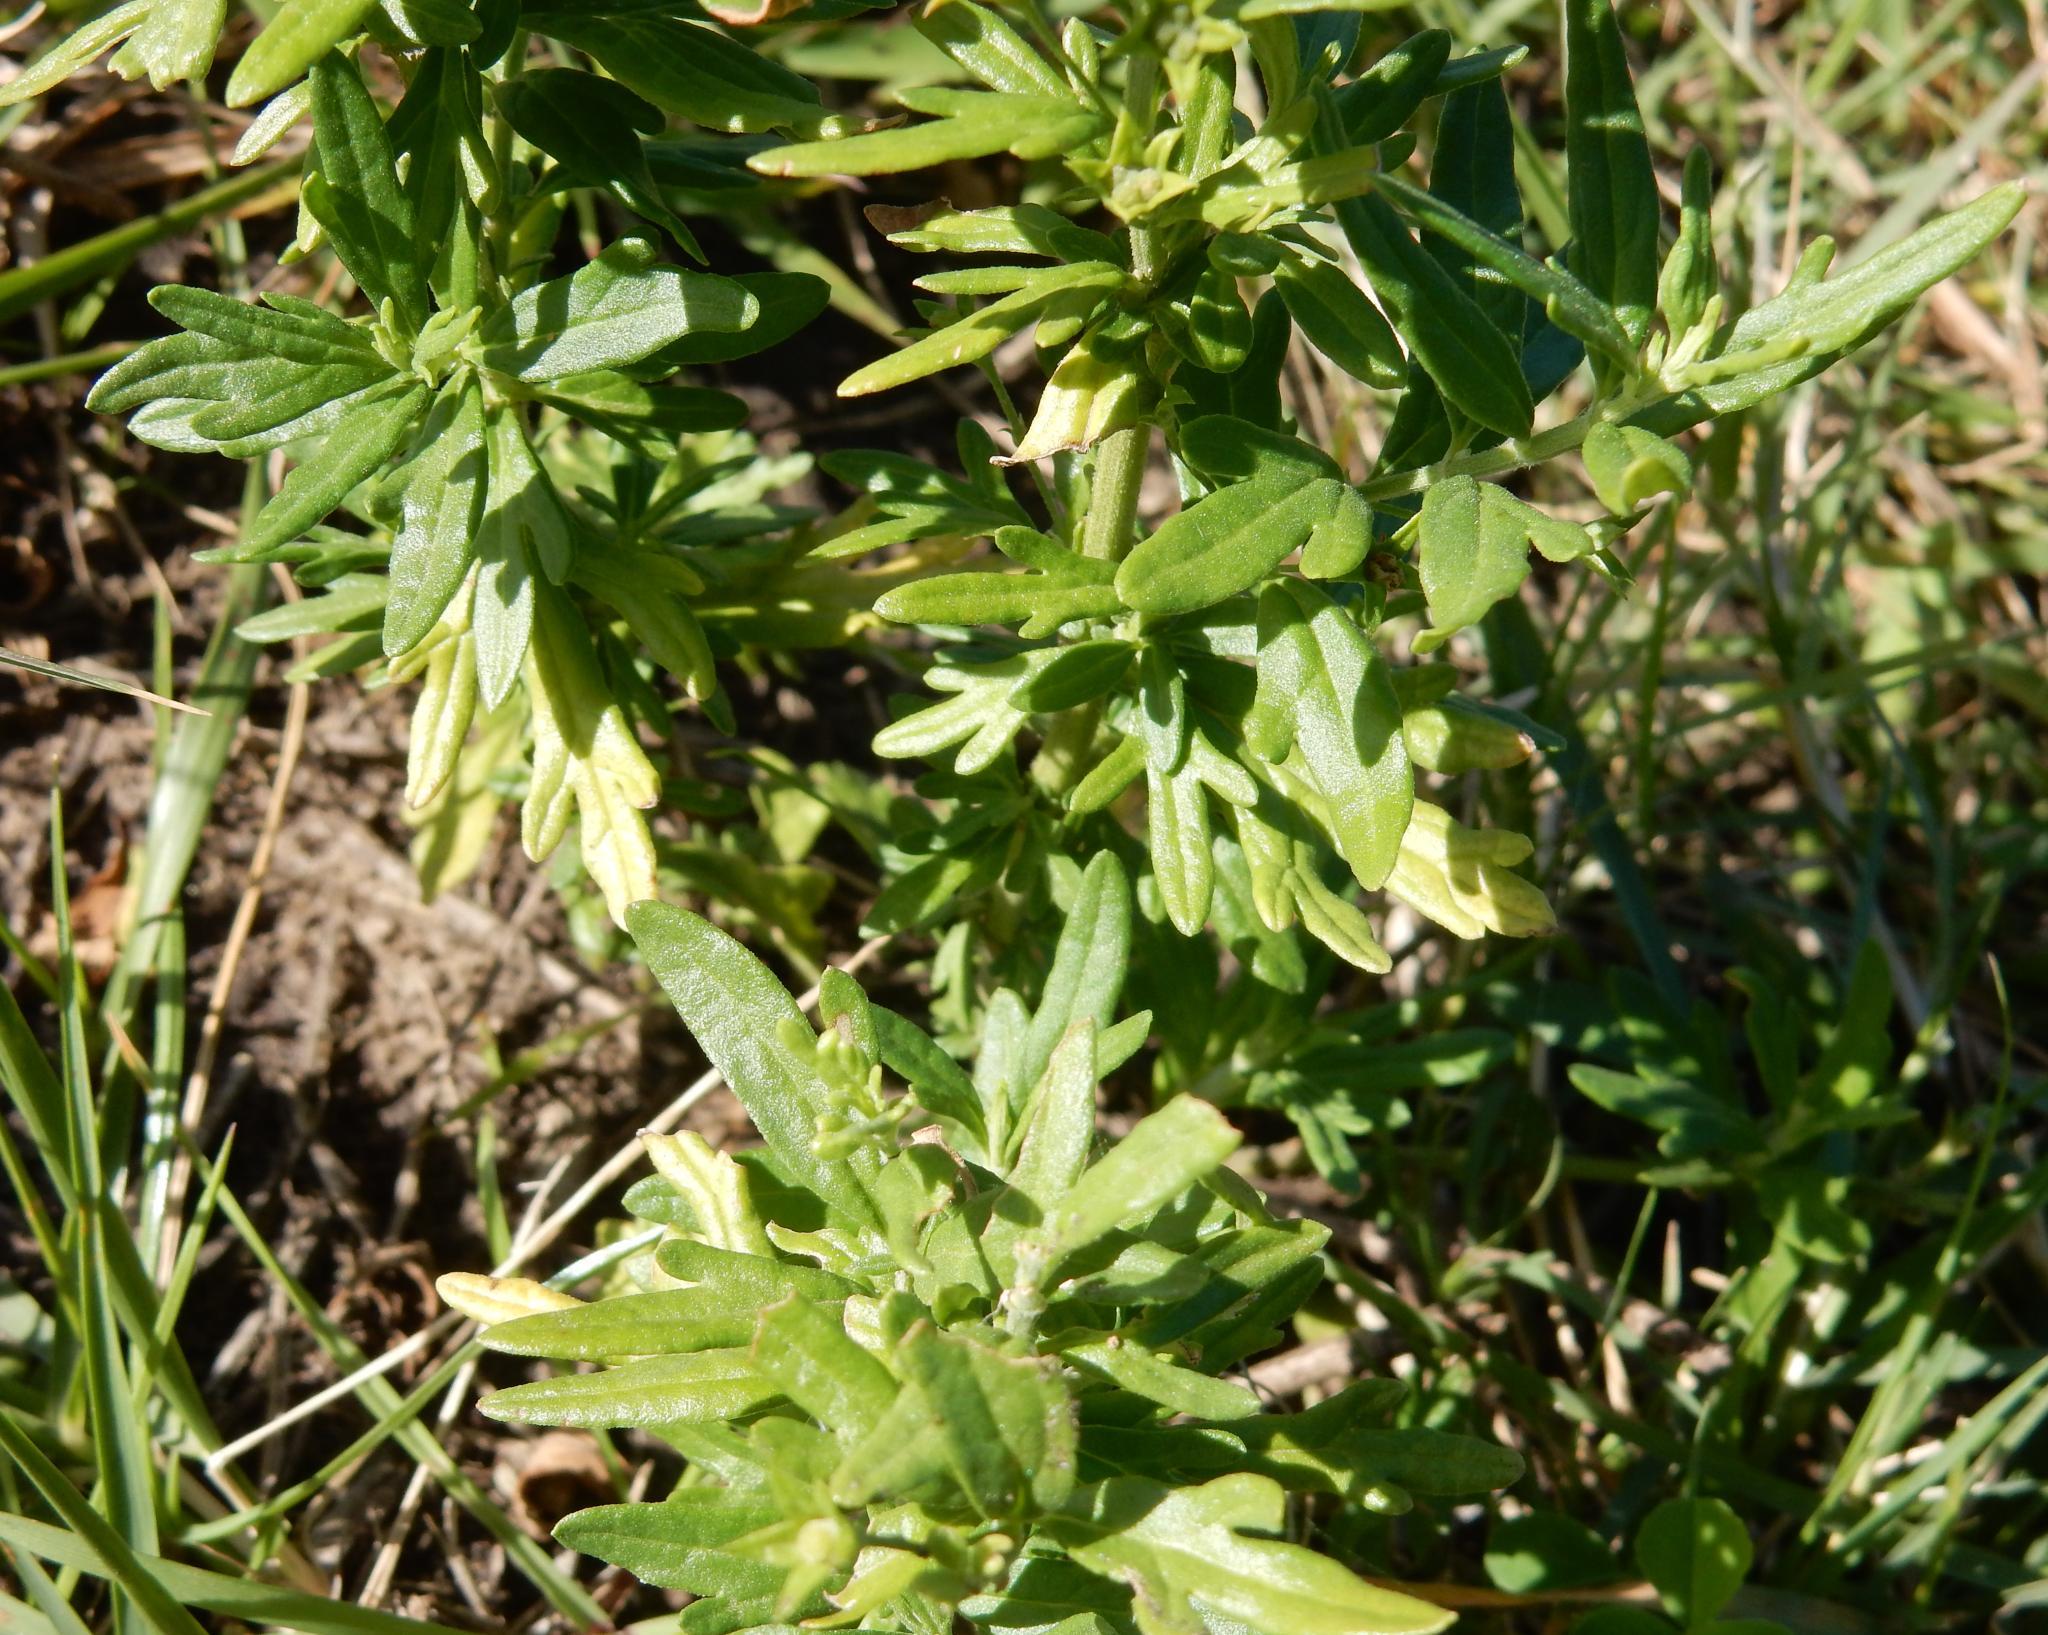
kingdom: Plantae
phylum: Tracheophyta
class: Magnoliopsida
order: Lamiales
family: Lamiaceae
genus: Teucrium
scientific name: Teucrium trifidum
